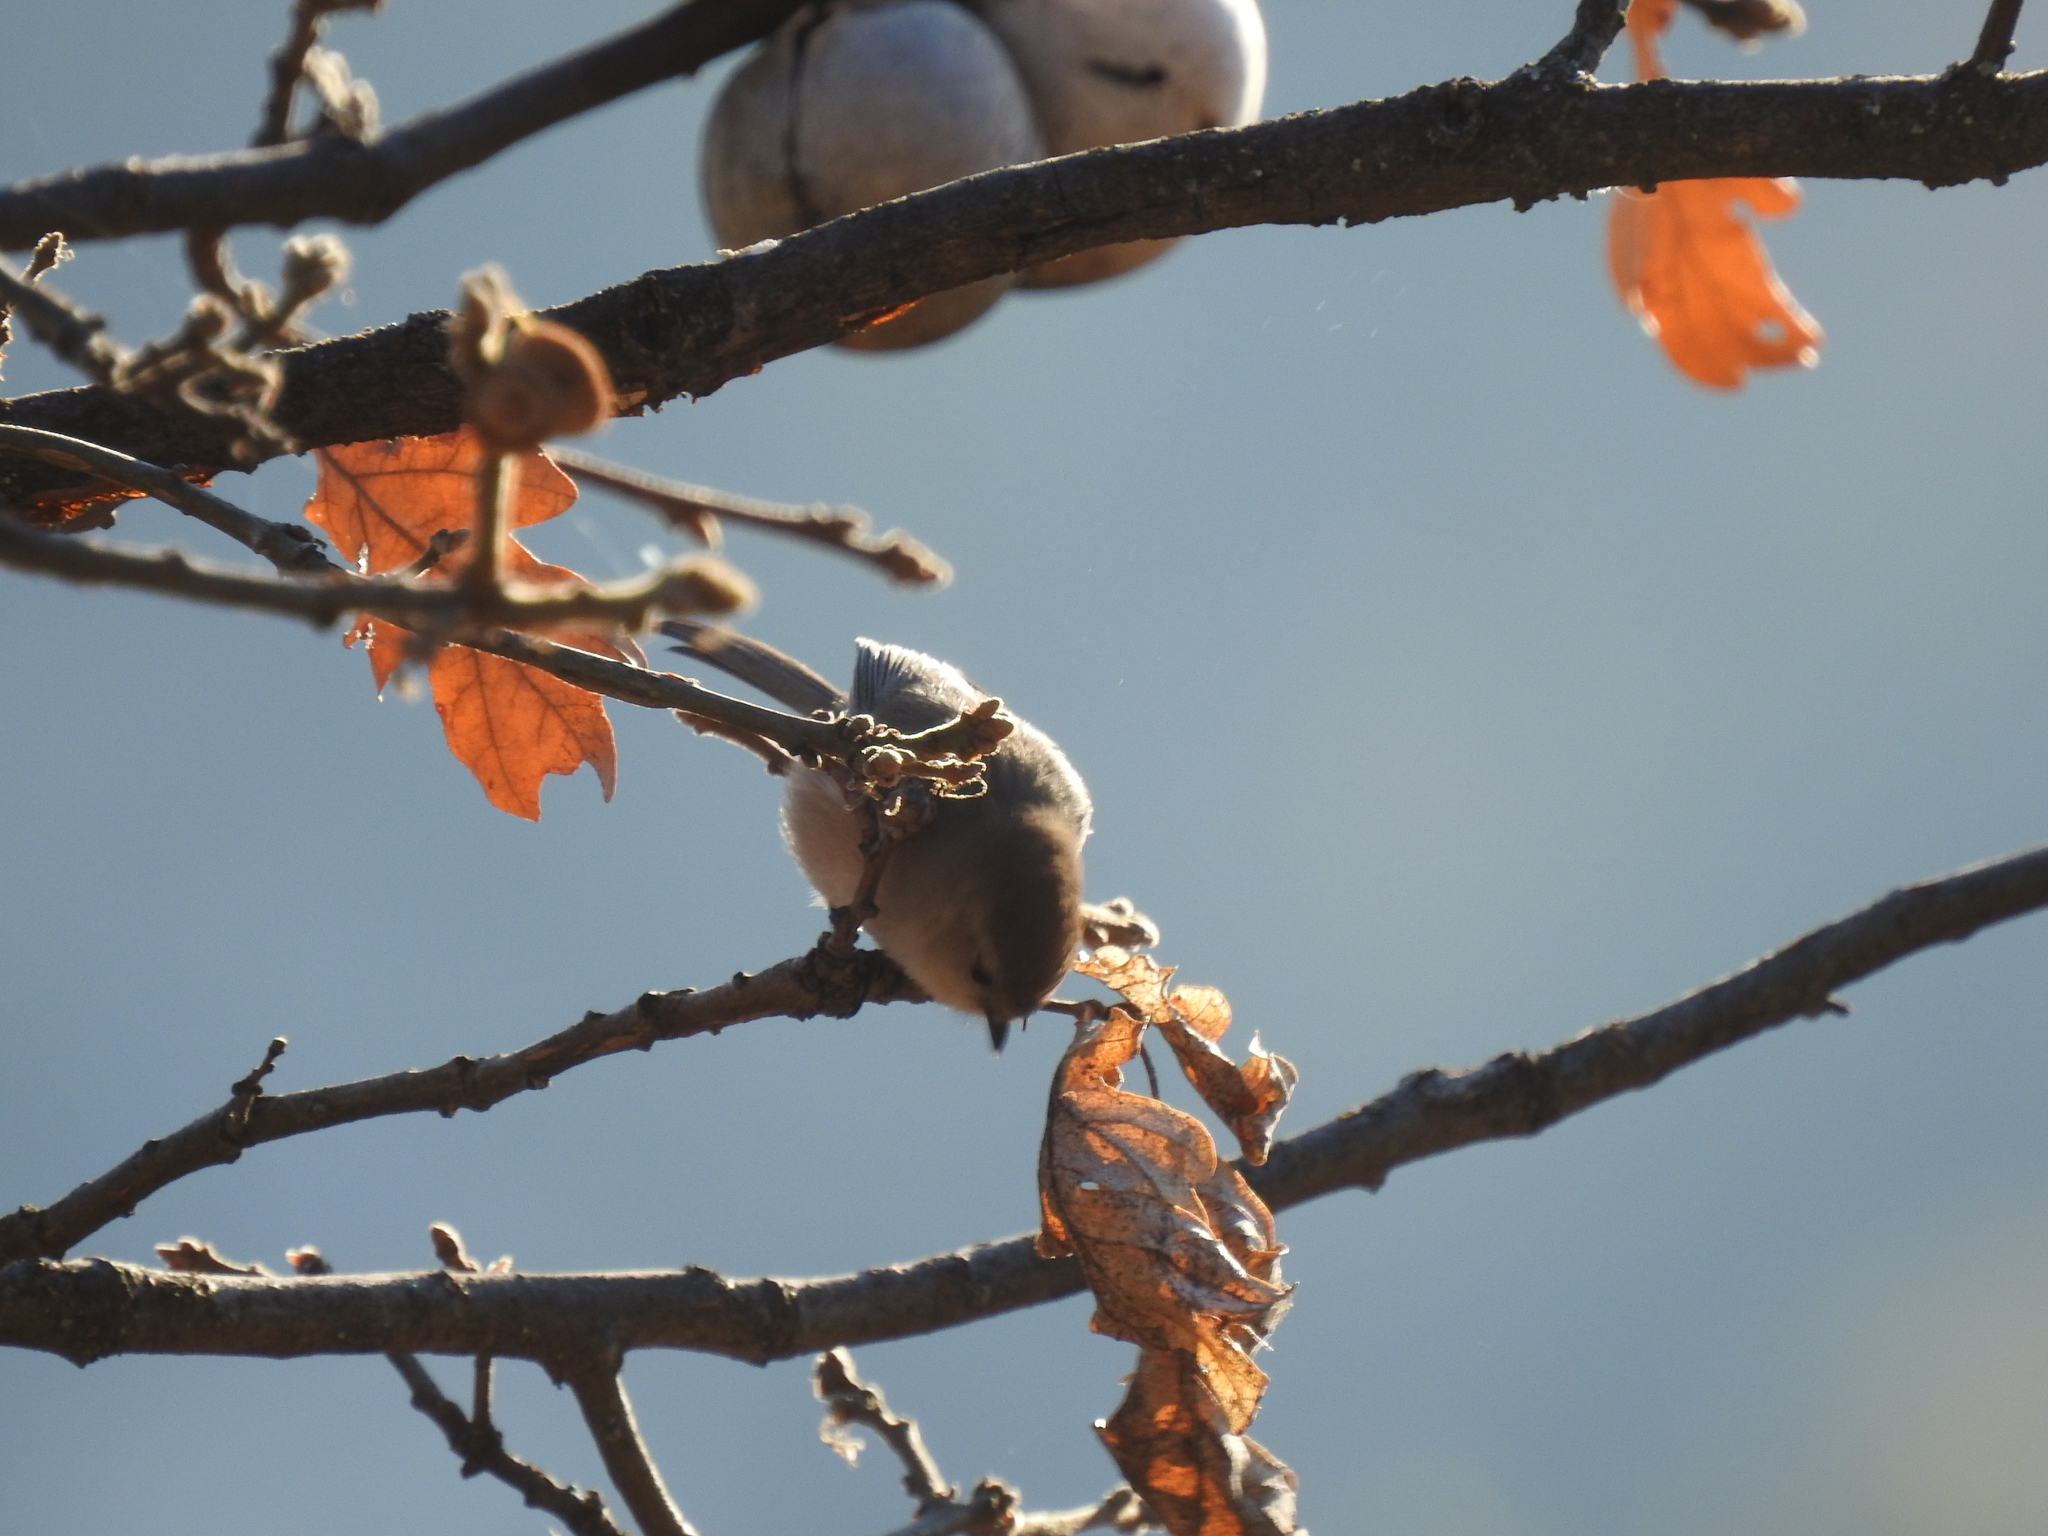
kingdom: Animalia
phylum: Chordata
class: Aves
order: Passeriformes
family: Aegithalidae
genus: Psaltriparus
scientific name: Psaltriparus minimus
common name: American bushtit
